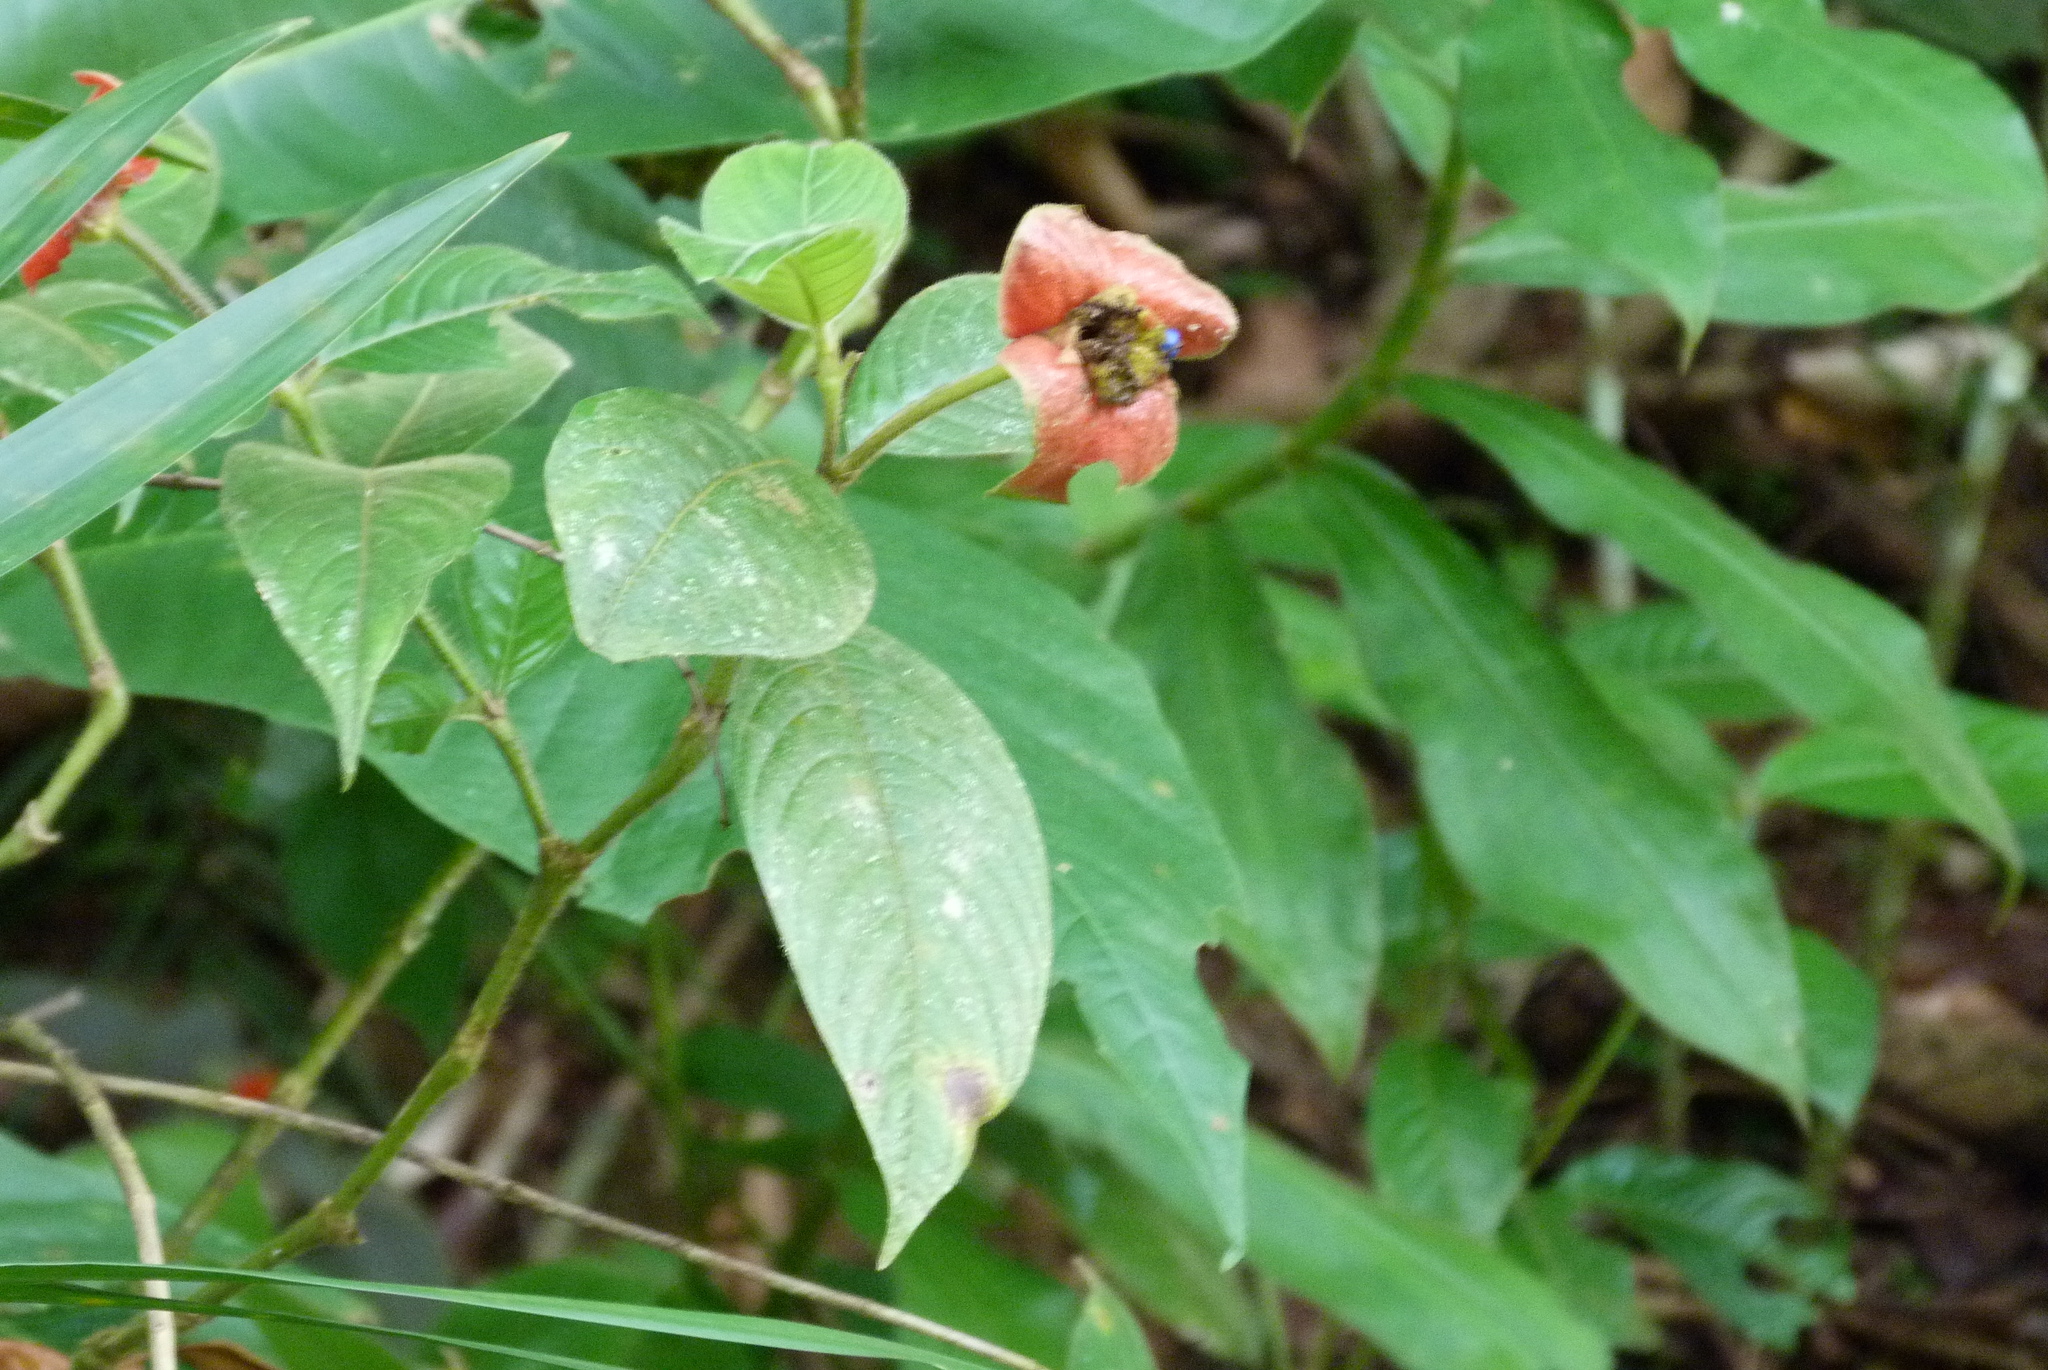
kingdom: Plantae
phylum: Tracheophyta
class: Magnoliopsida
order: Gentianales
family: Rubiaceae
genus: Palicourea
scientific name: Palicourea tomentosa
